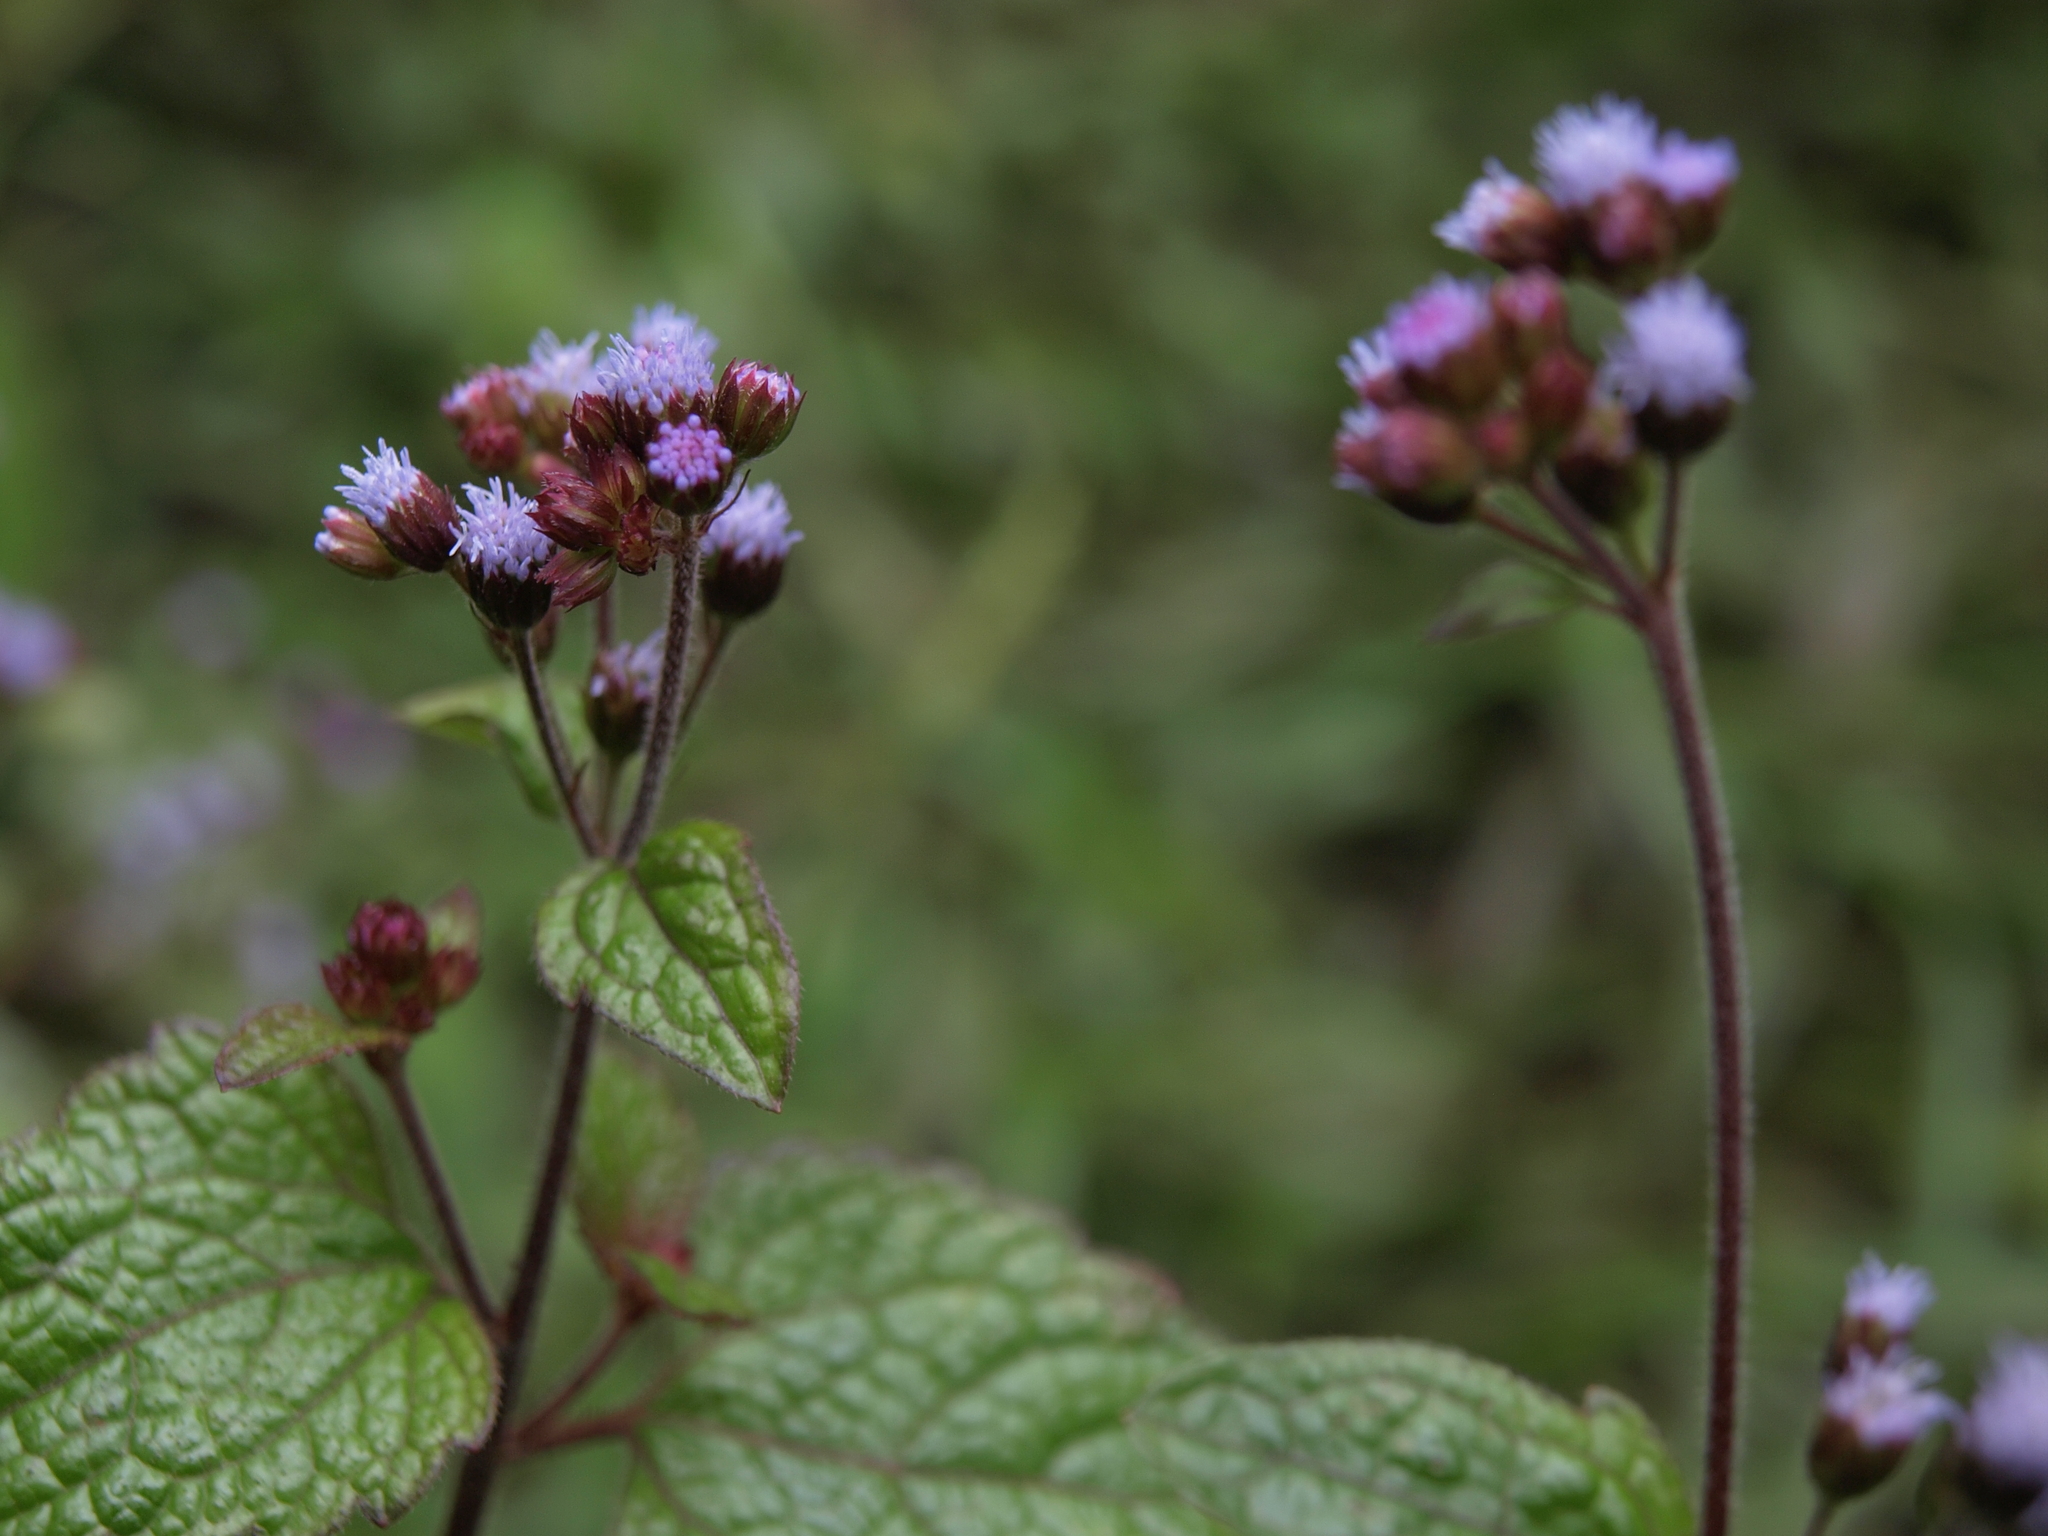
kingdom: Plantae
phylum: Tracheophyta
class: Magnoliopsida
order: Asterales
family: Asteraceae
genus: Ageratum
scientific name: Ageratum conyzoides
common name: Tropical whiteweed
